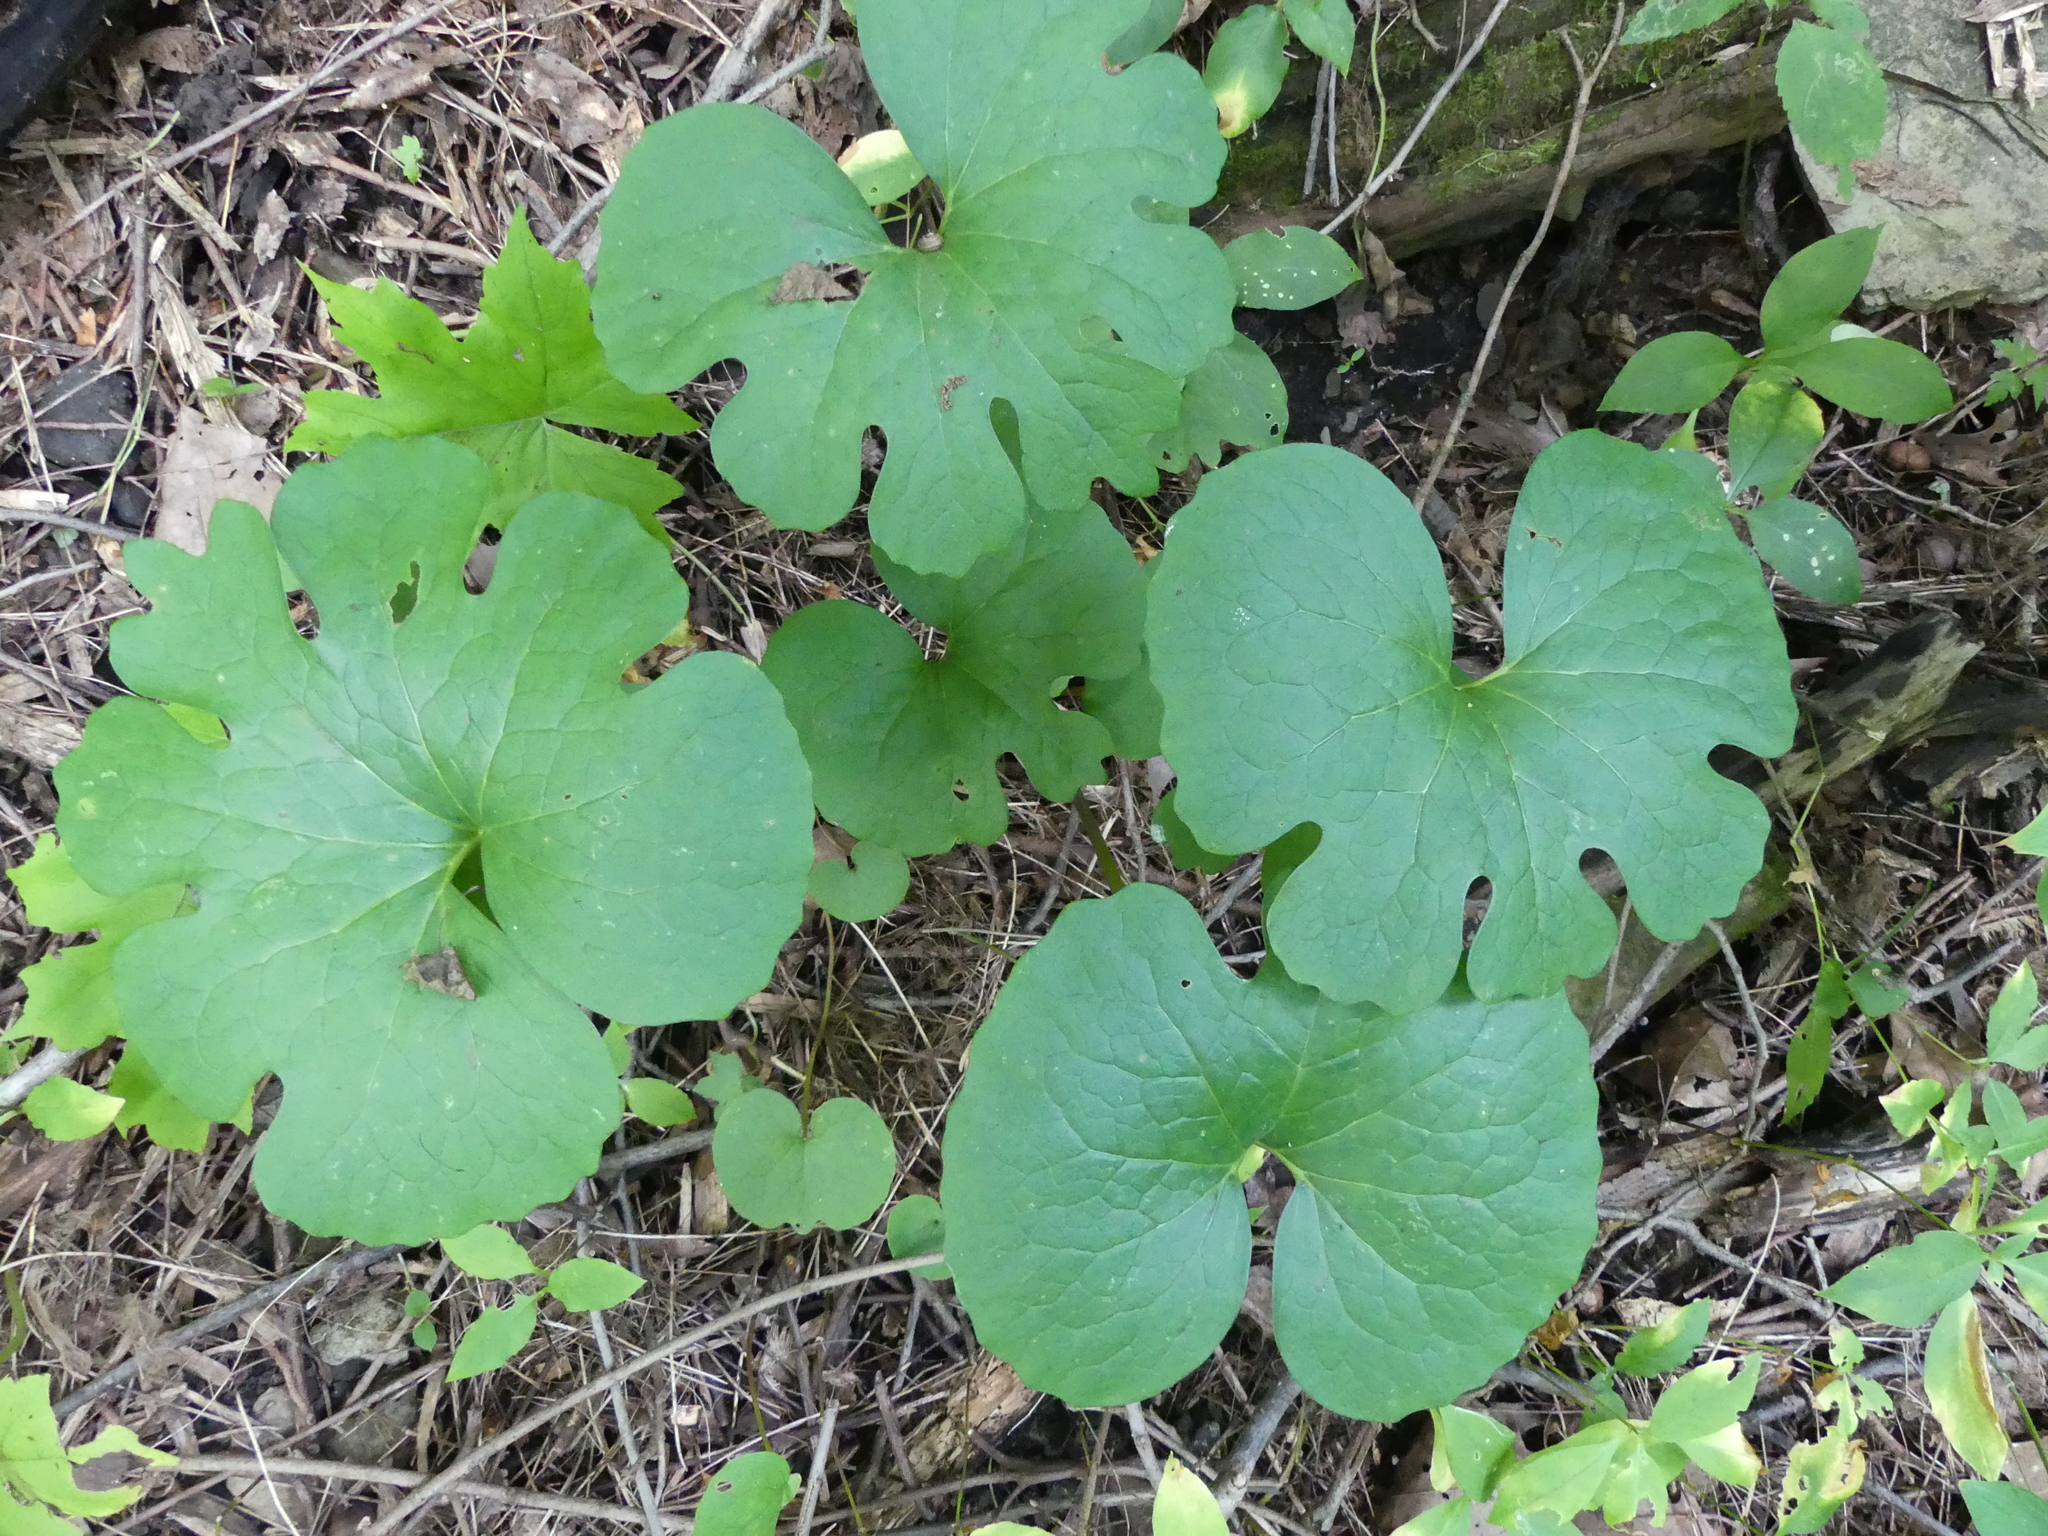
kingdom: Plantae
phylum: Tracheophyta
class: Magnoliopsida
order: Ranunculales
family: Papaveraceae
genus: Sanguinaria
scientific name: Sanguinaria canadensis
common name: Bloodroot
